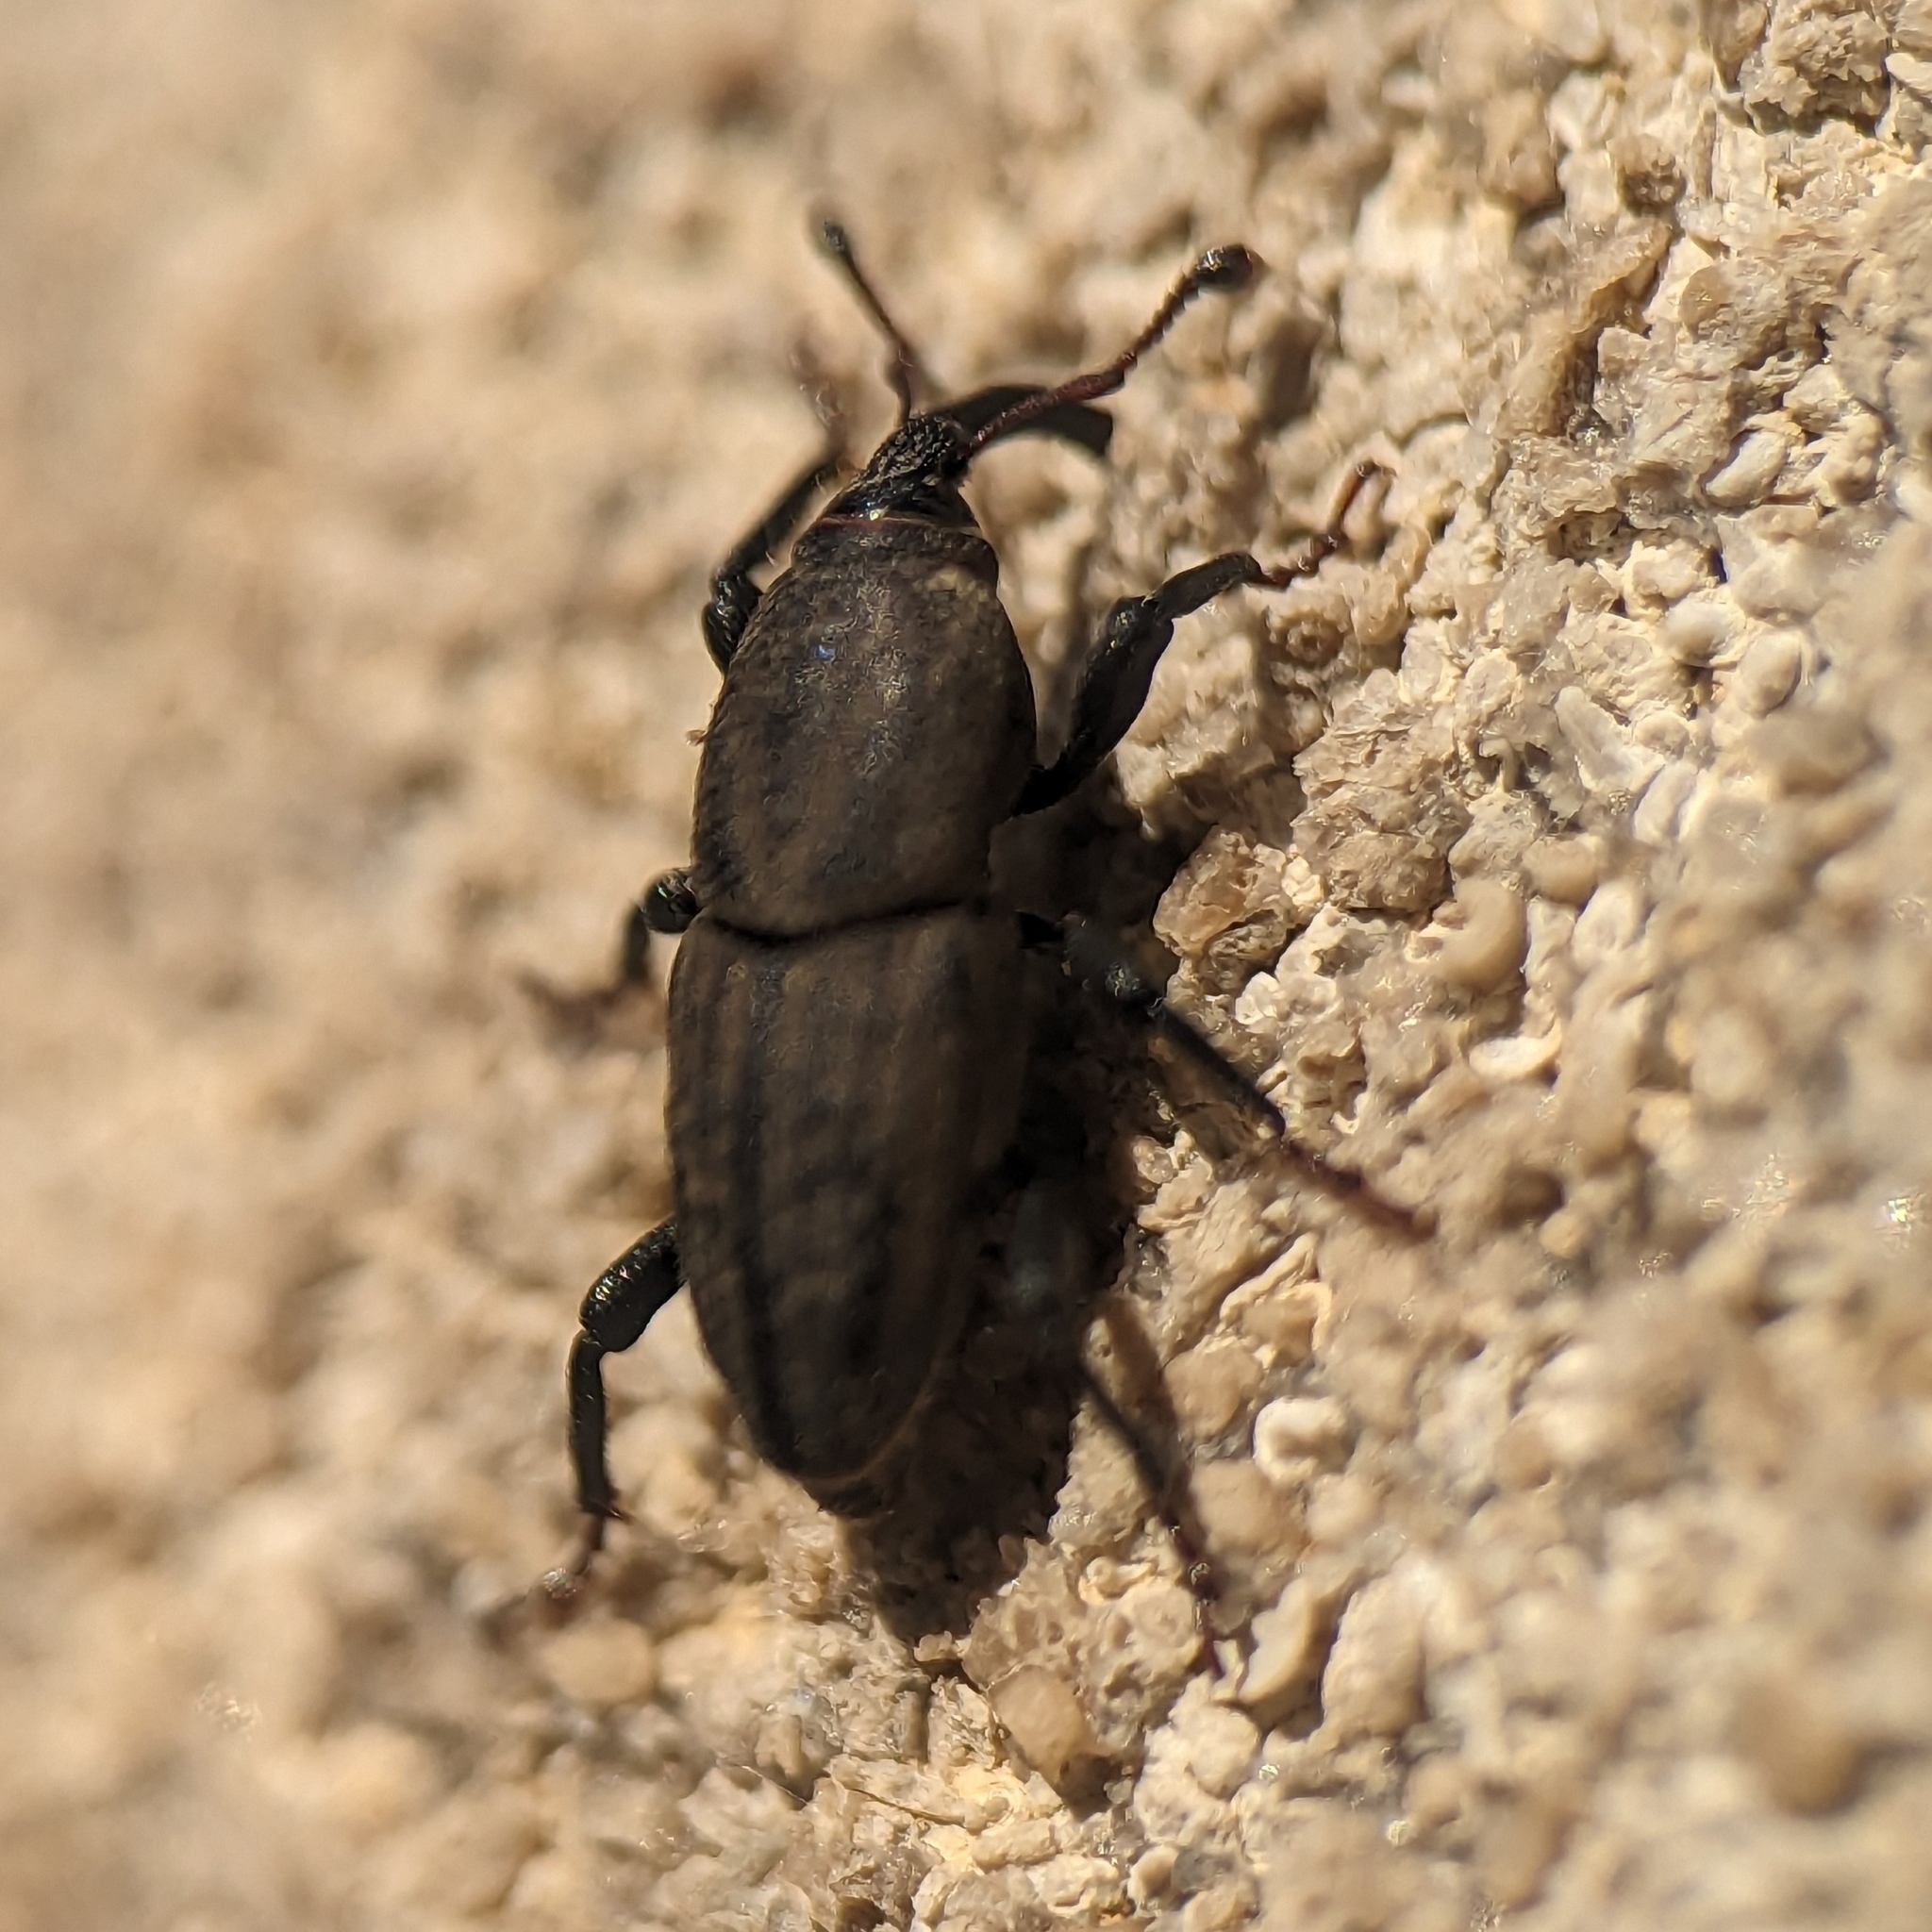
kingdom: Animalia
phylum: Arthropoda
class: Insecta
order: Coleoptera
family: Dryophthoridae
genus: Sphenophorus
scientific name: Sphenophorus interstitialis
